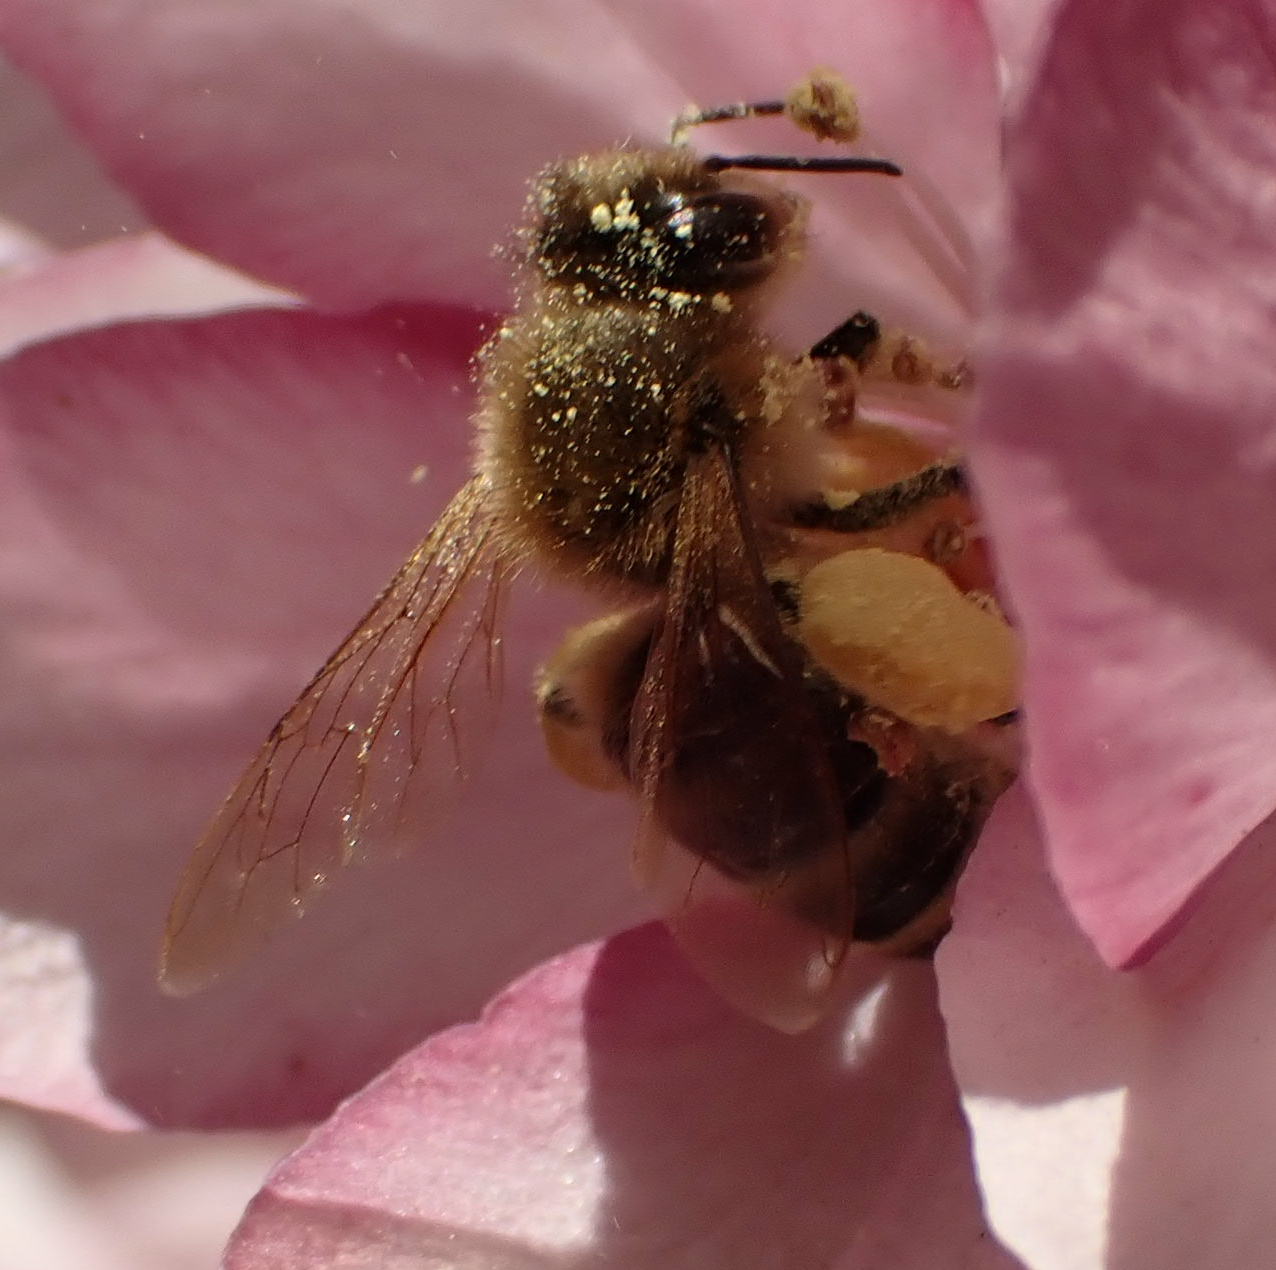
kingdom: Animalia
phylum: Arthropoda
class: Insecta
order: Hymenoptera
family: Apidae
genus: Apis
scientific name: Apis mellifera
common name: Honey bee
